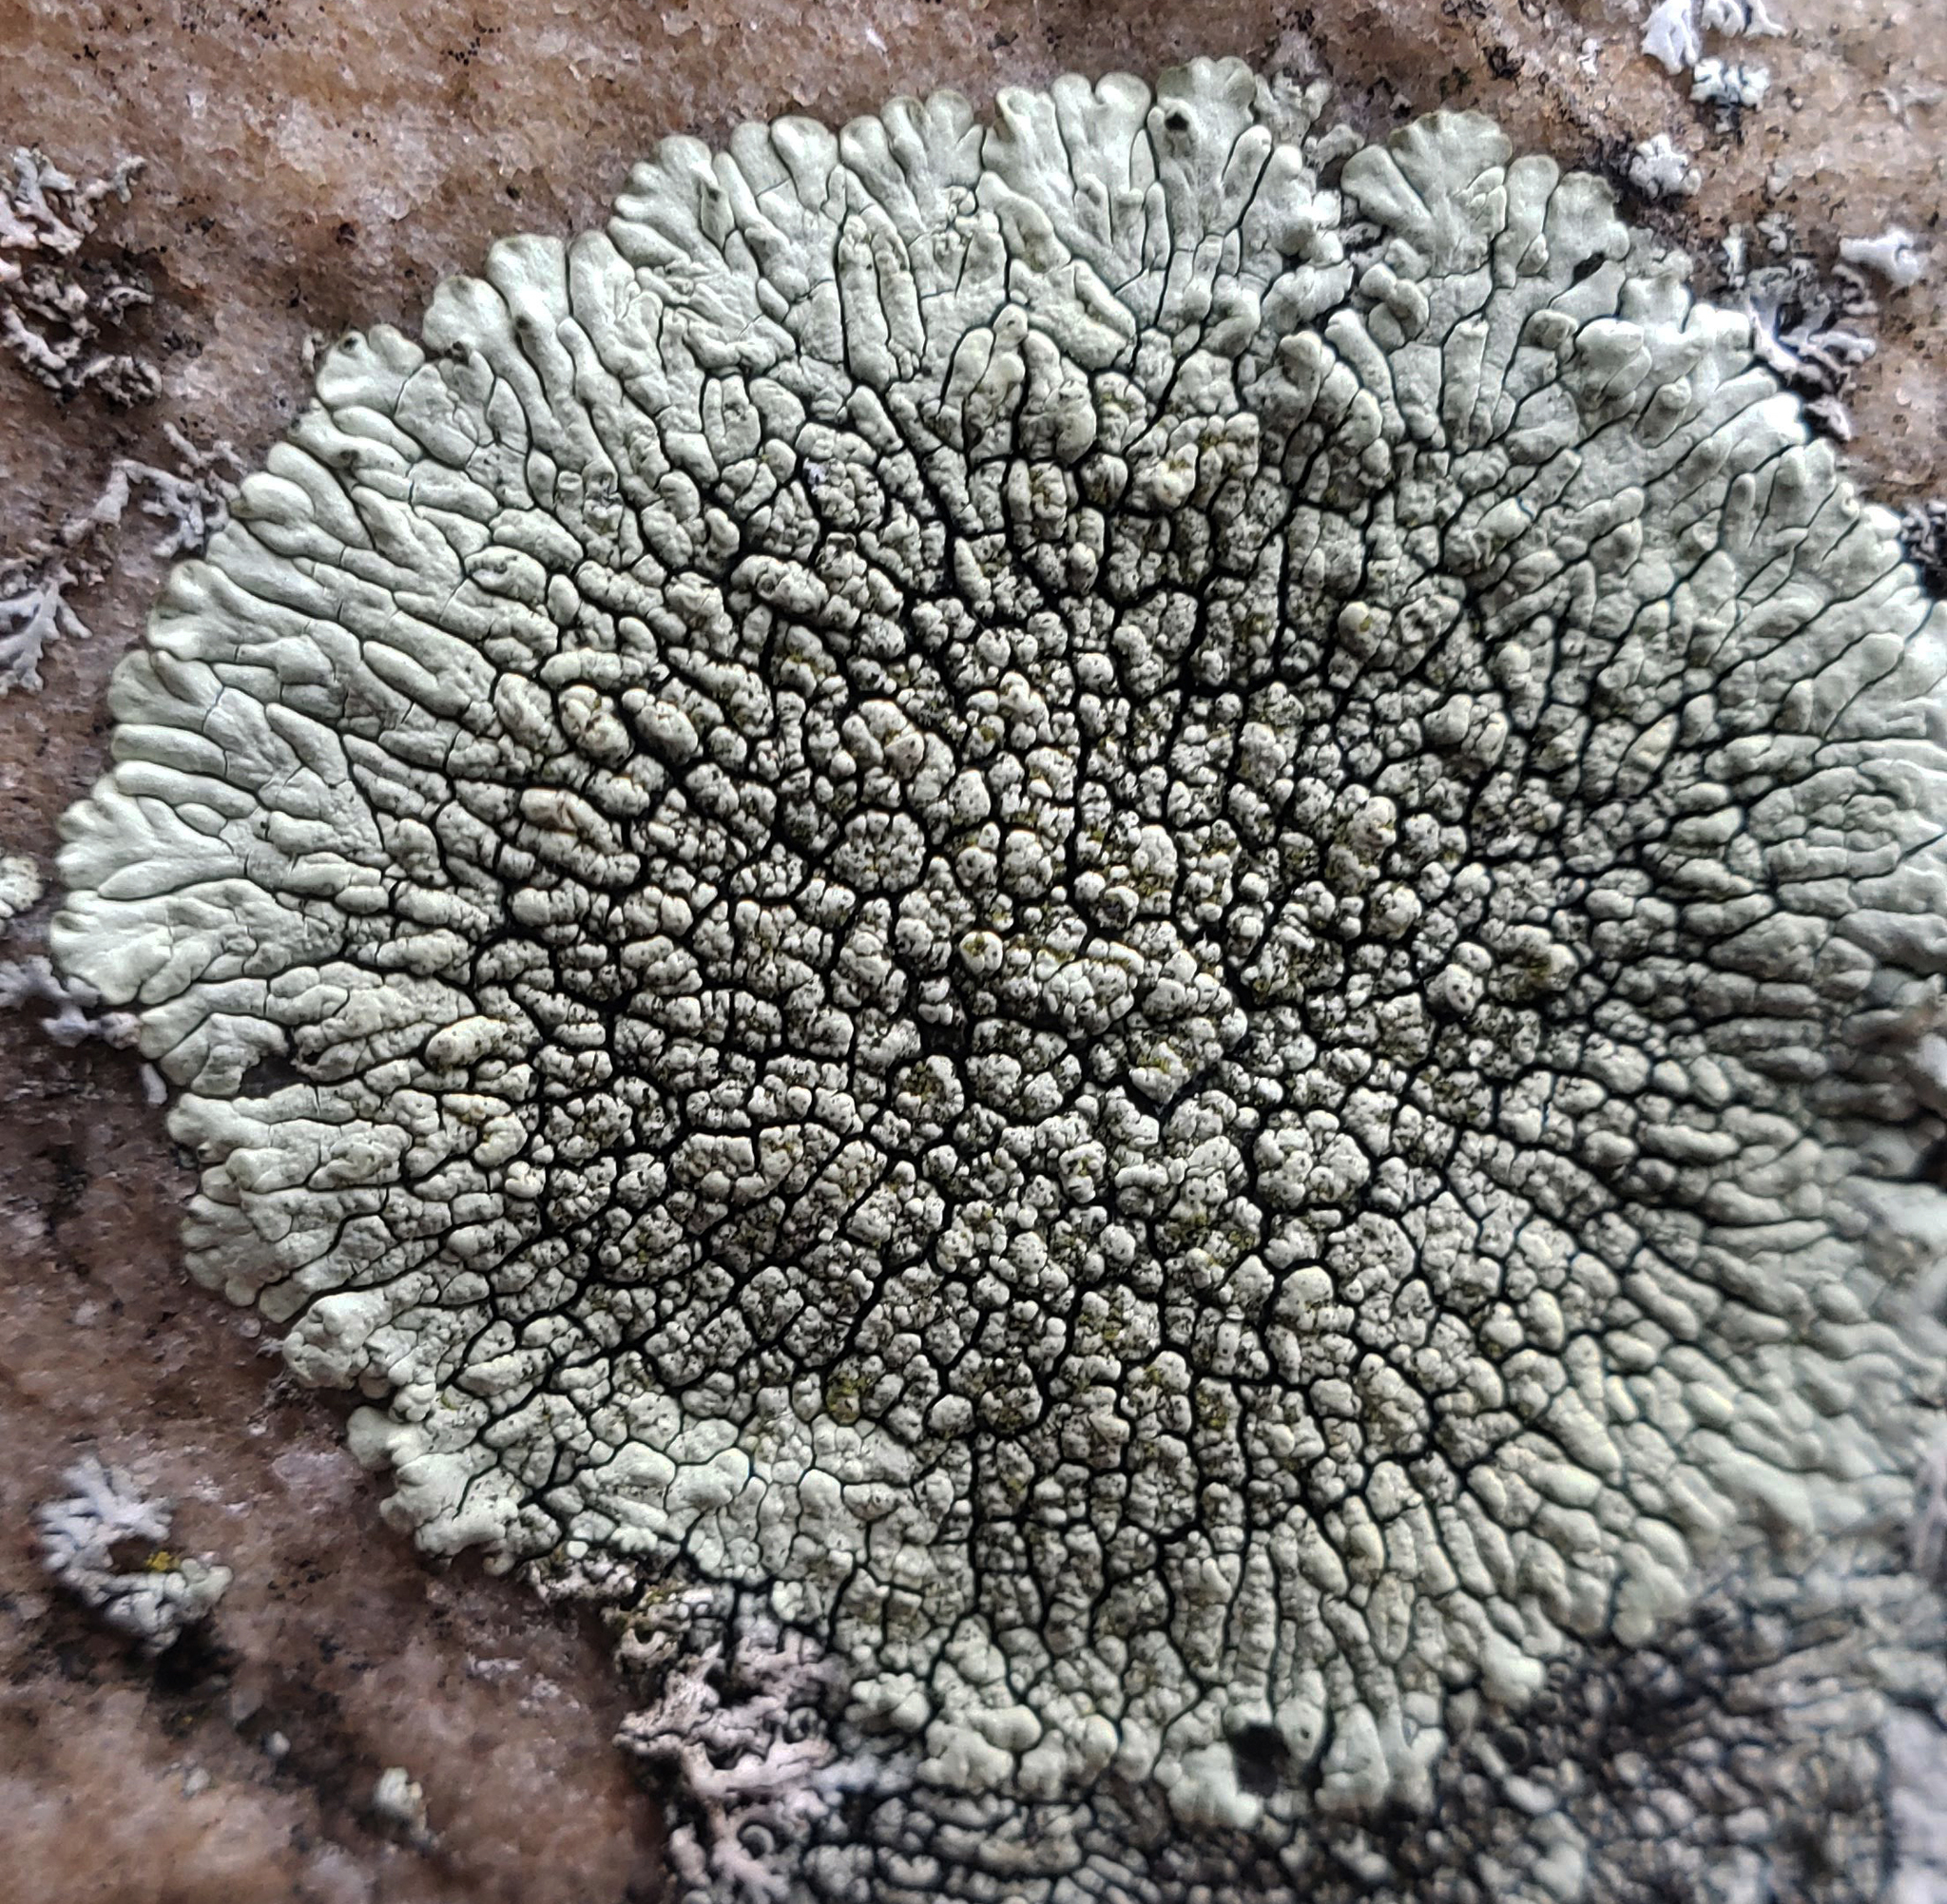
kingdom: Fungi
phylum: Ascomycota
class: Lecanoromycetes
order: Caliciales
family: Caliciaceae
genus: Dimelaena
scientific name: Dimelaena oreina
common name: Golden moonglow lichen
